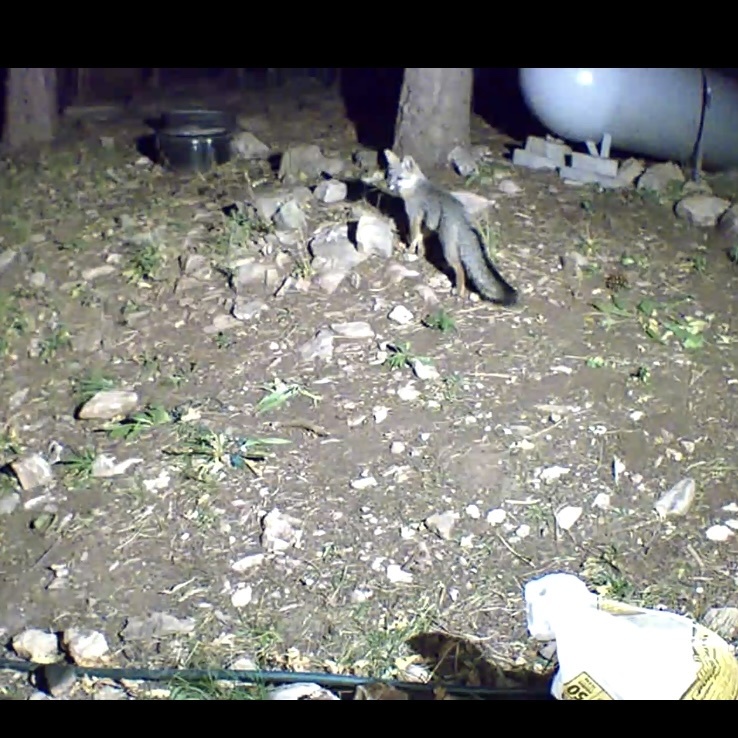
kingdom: Animalia
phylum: Chordata
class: Mammalia
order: Carnivora
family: Canidae
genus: Urocyon
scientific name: Urocyon cinereoargenteus
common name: Gray fox
